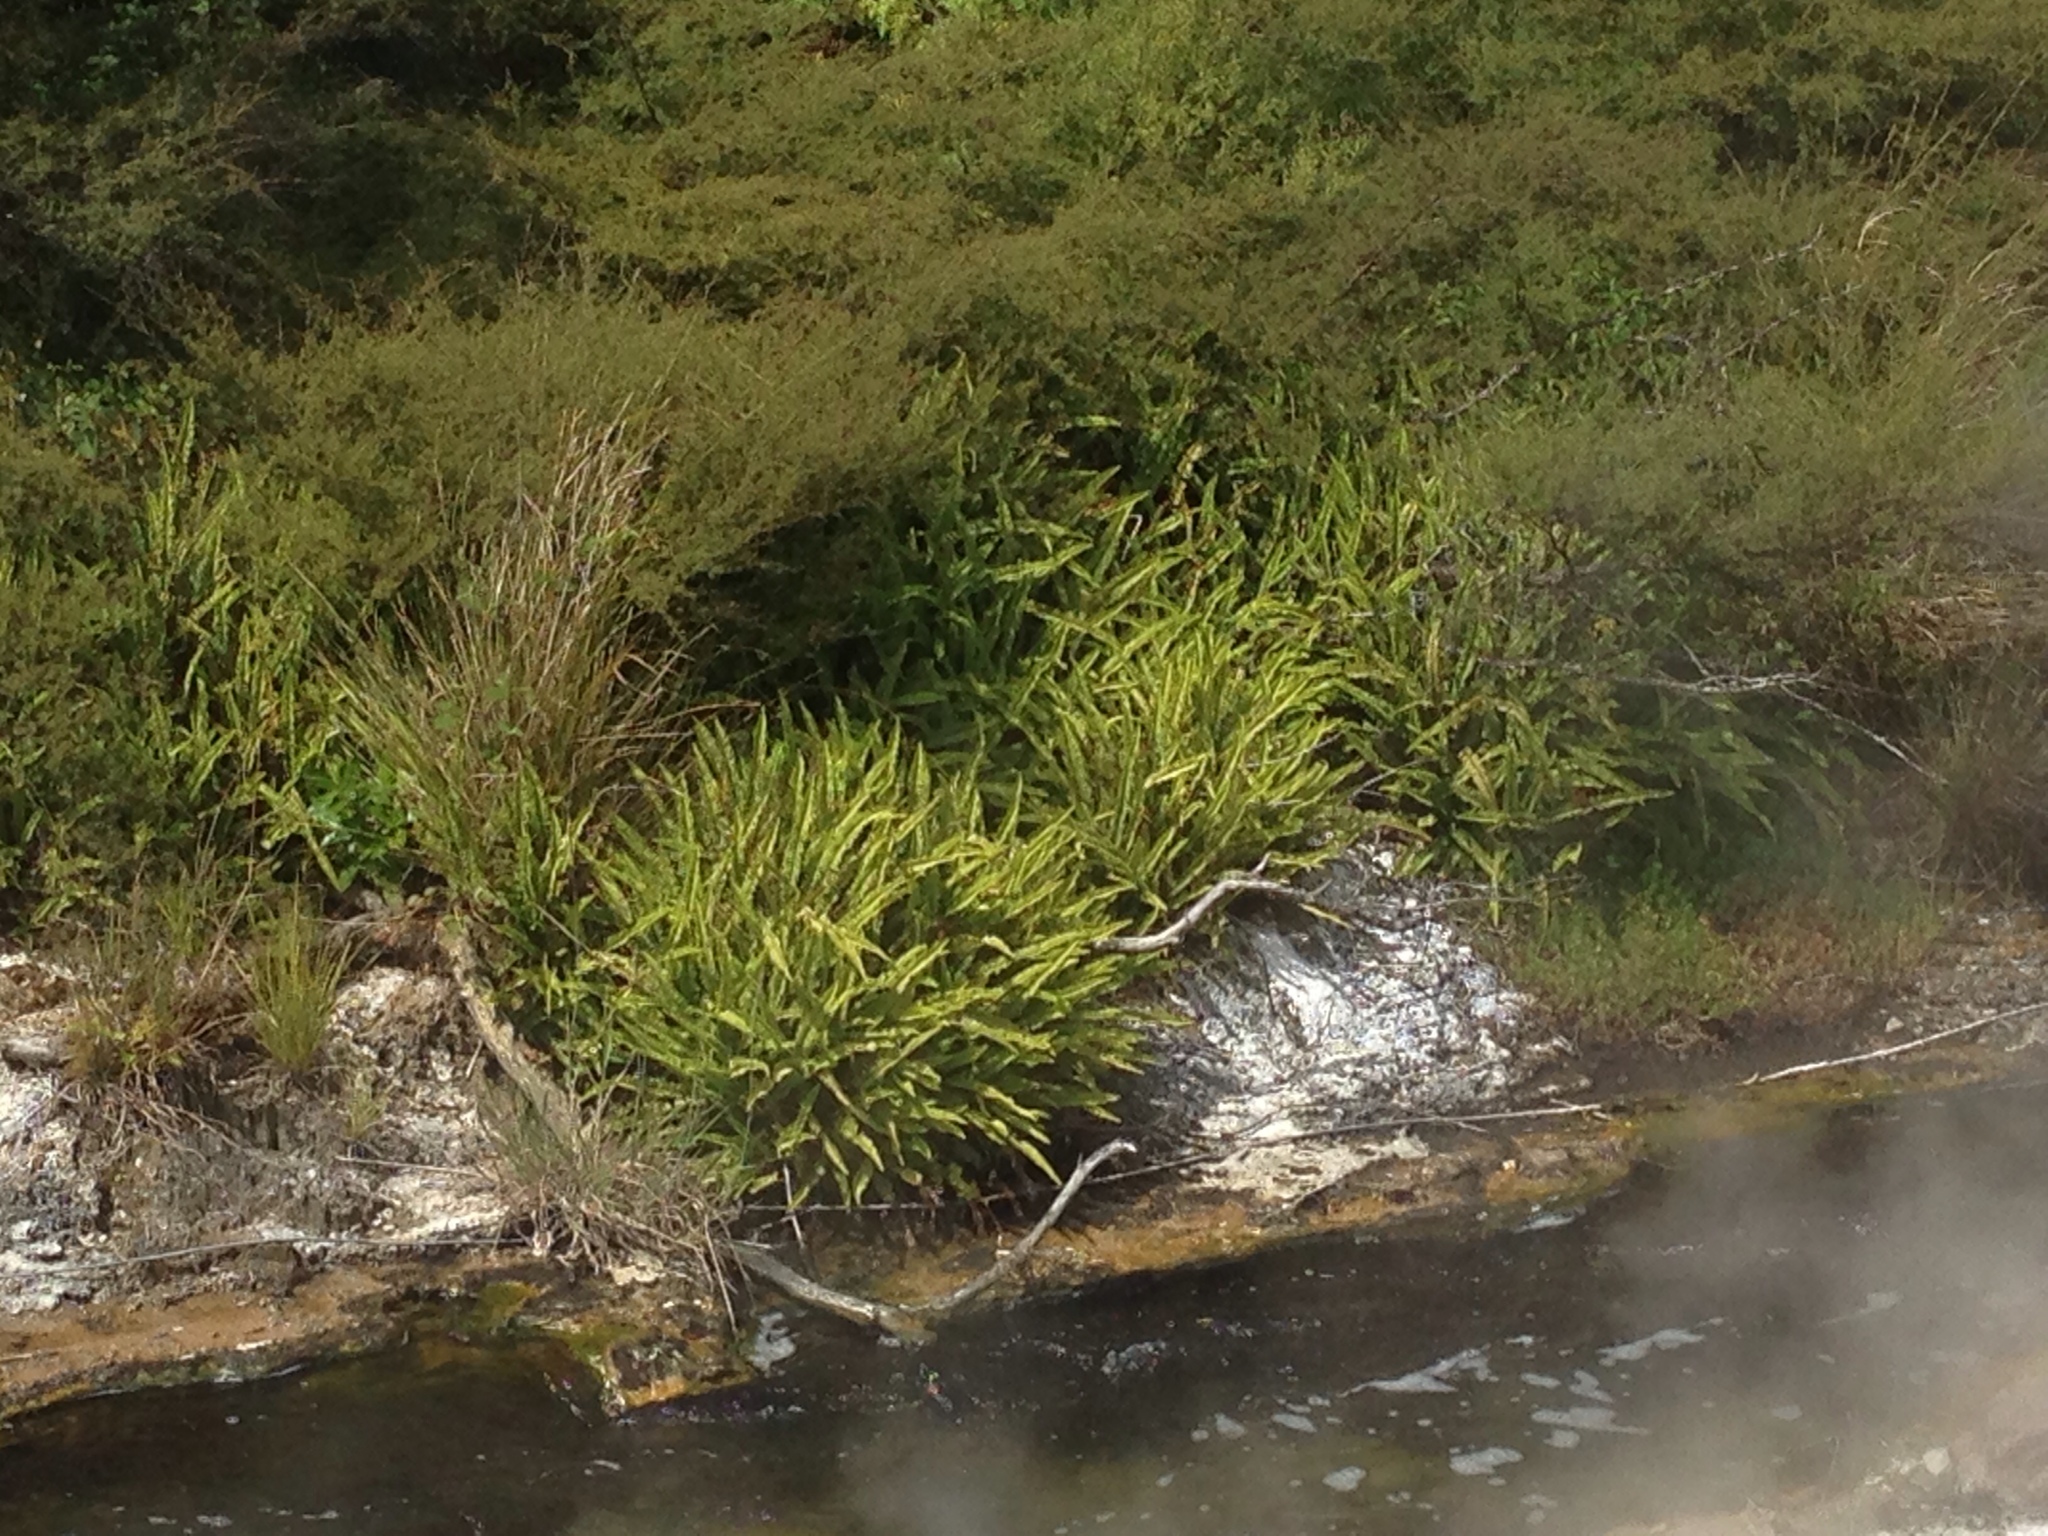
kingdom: Plantae
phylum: Tracheophyta
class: Polypodiopsida
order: Polypodiales
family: Nephrolepidaceae
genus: Nephrolepis
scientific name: Nephrolepis flexuosa
